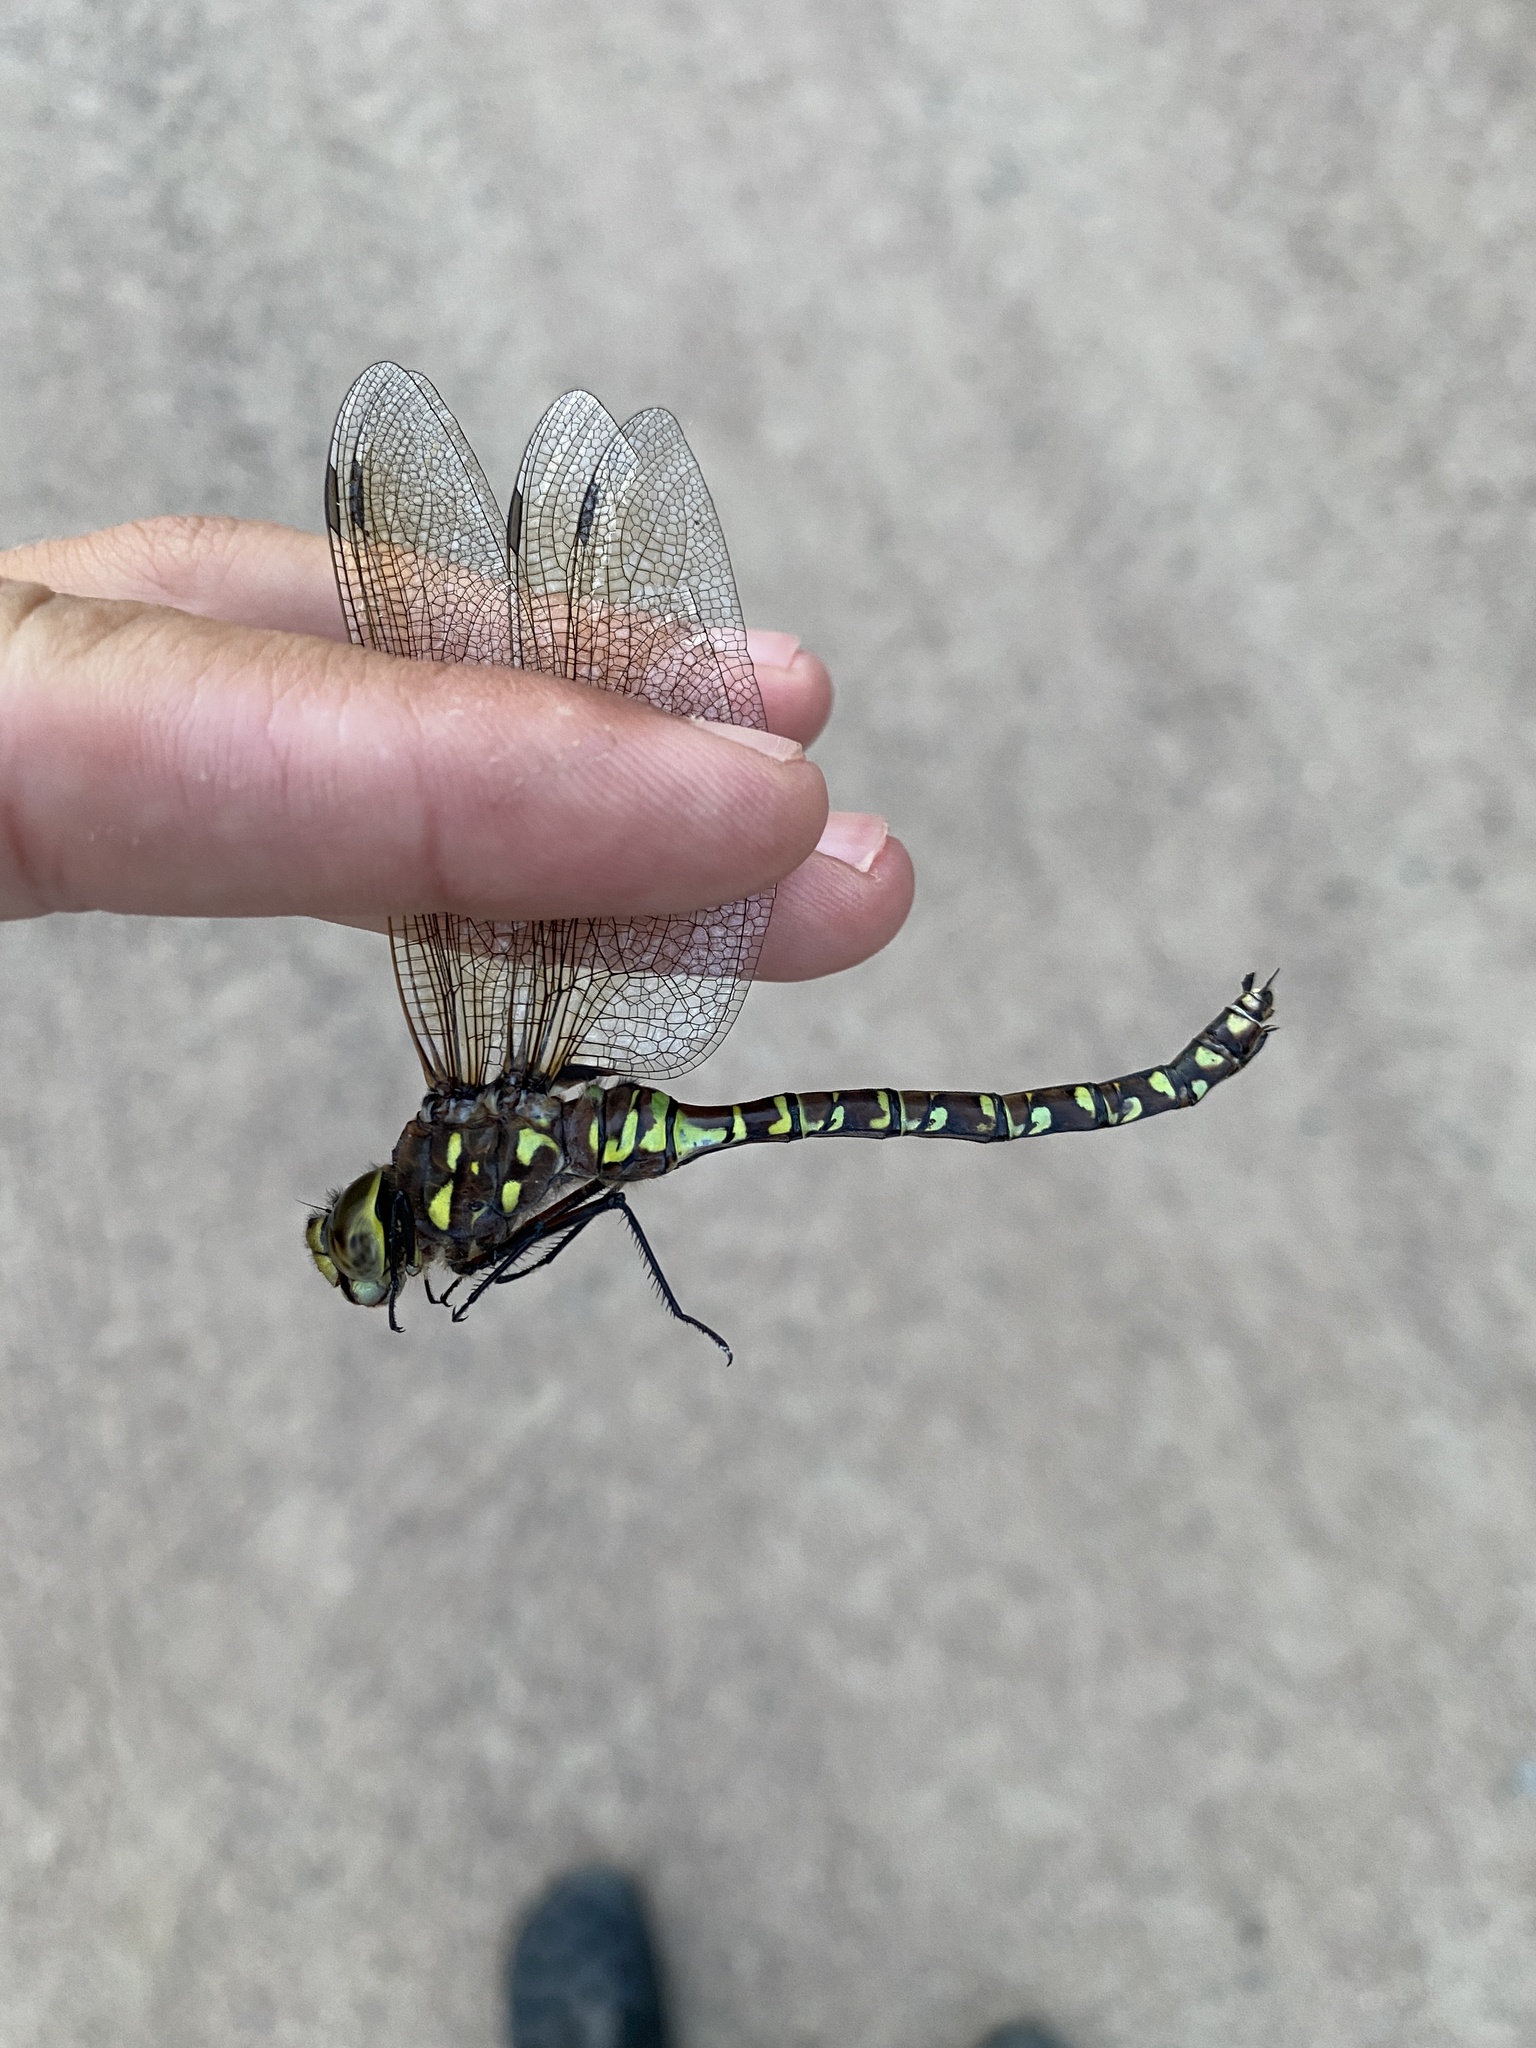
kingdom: Animalia
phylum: Arthropoda
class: Insecta
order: Odonata
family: Aeshnidae
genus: Aeshna
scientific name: Aeshna interrupta
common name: Variable darner
